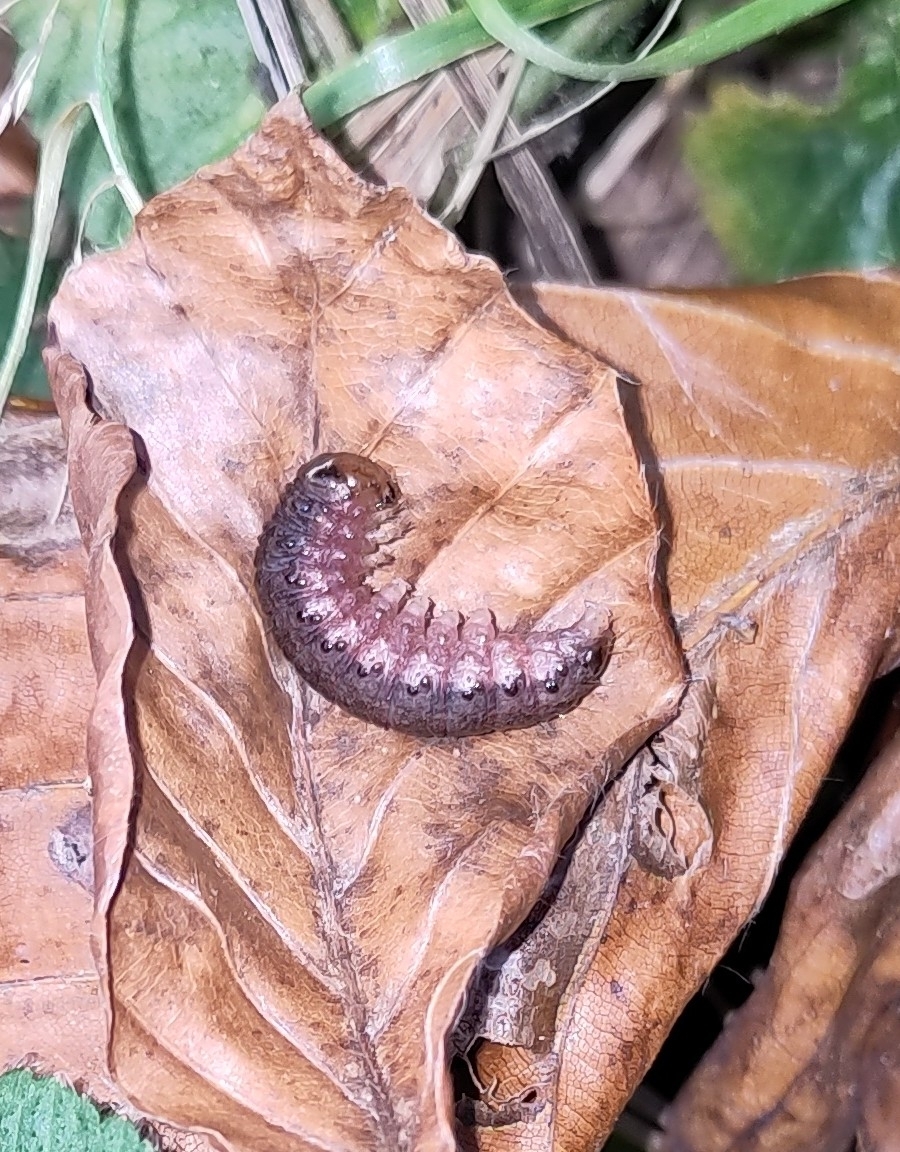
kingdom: Animalia
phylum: Arthropoda
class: Insecta
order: Lepidoptera
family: Noctuidae
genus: Apamea
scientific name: Apamea epomidion
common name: Clouded brindle
